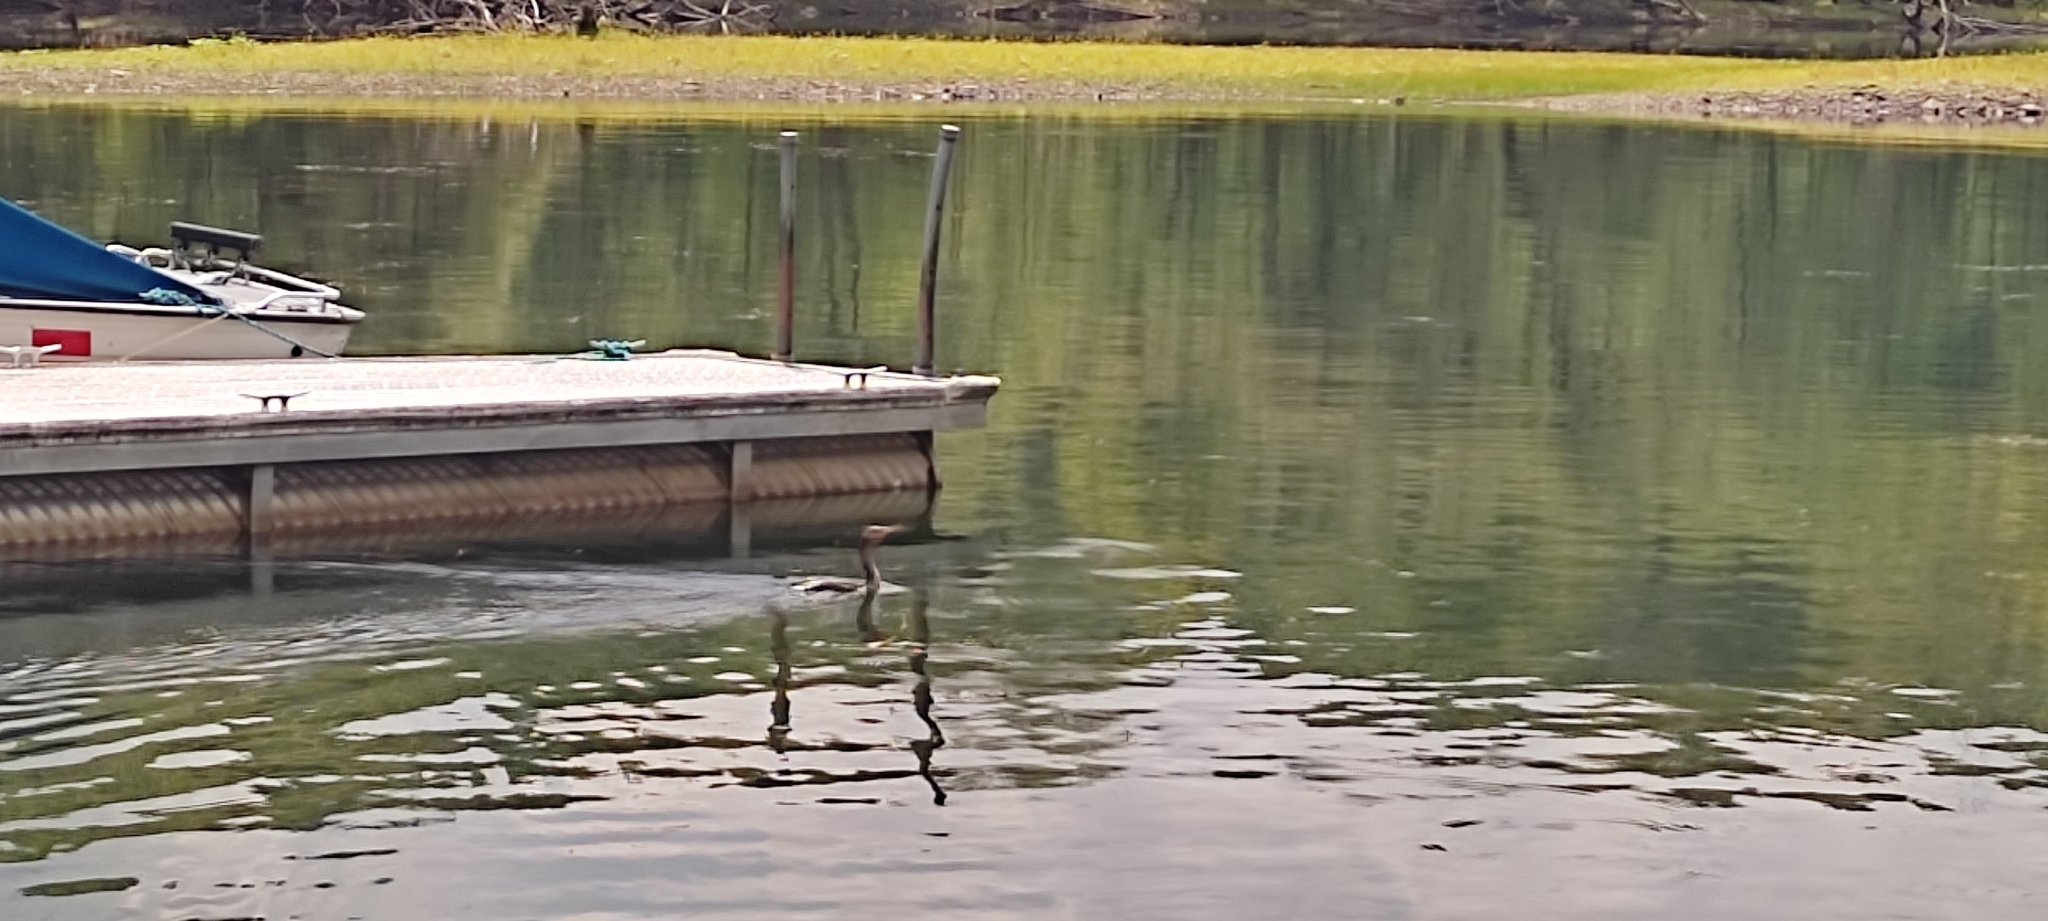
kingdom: Animalia
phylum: Chordata
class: Aves
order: Suliformes
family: Phalacrocoracidae
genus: Phalacrocorax
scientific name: Phalacrocorax auritus
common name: Double-crested cormorant
